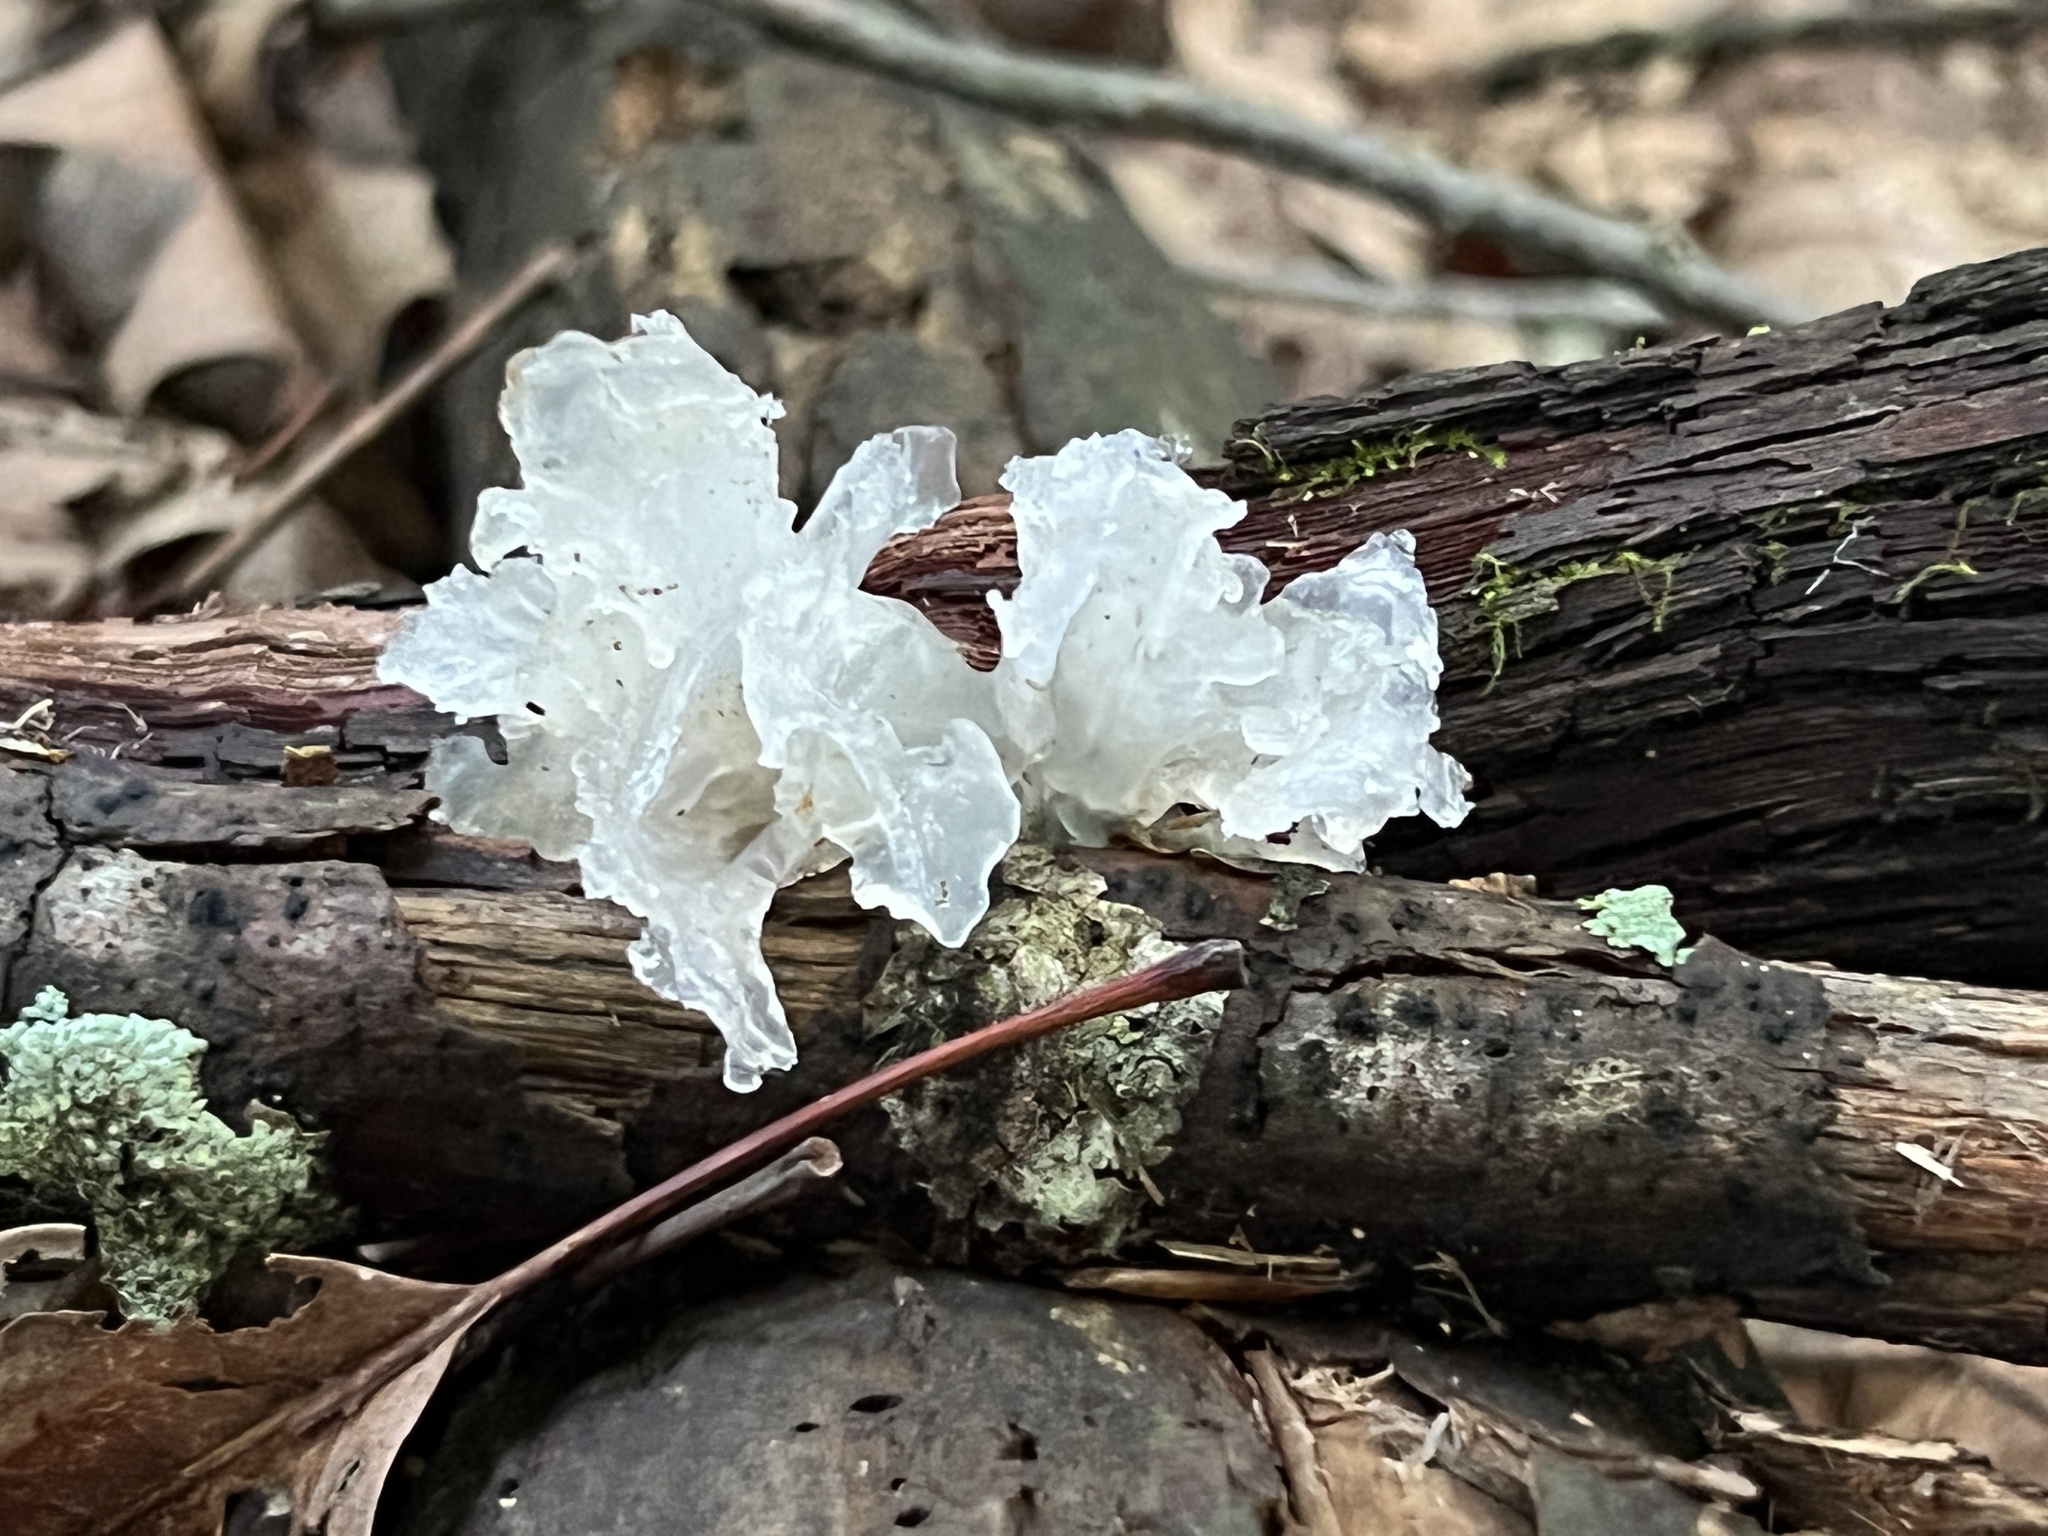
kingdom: Fungi
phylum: Basidiomycota
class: Tremellomycetes
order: Tremellales
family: Tremellaceae
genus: Tremella
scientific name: Tremella fuciformis
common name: Snow fungus
